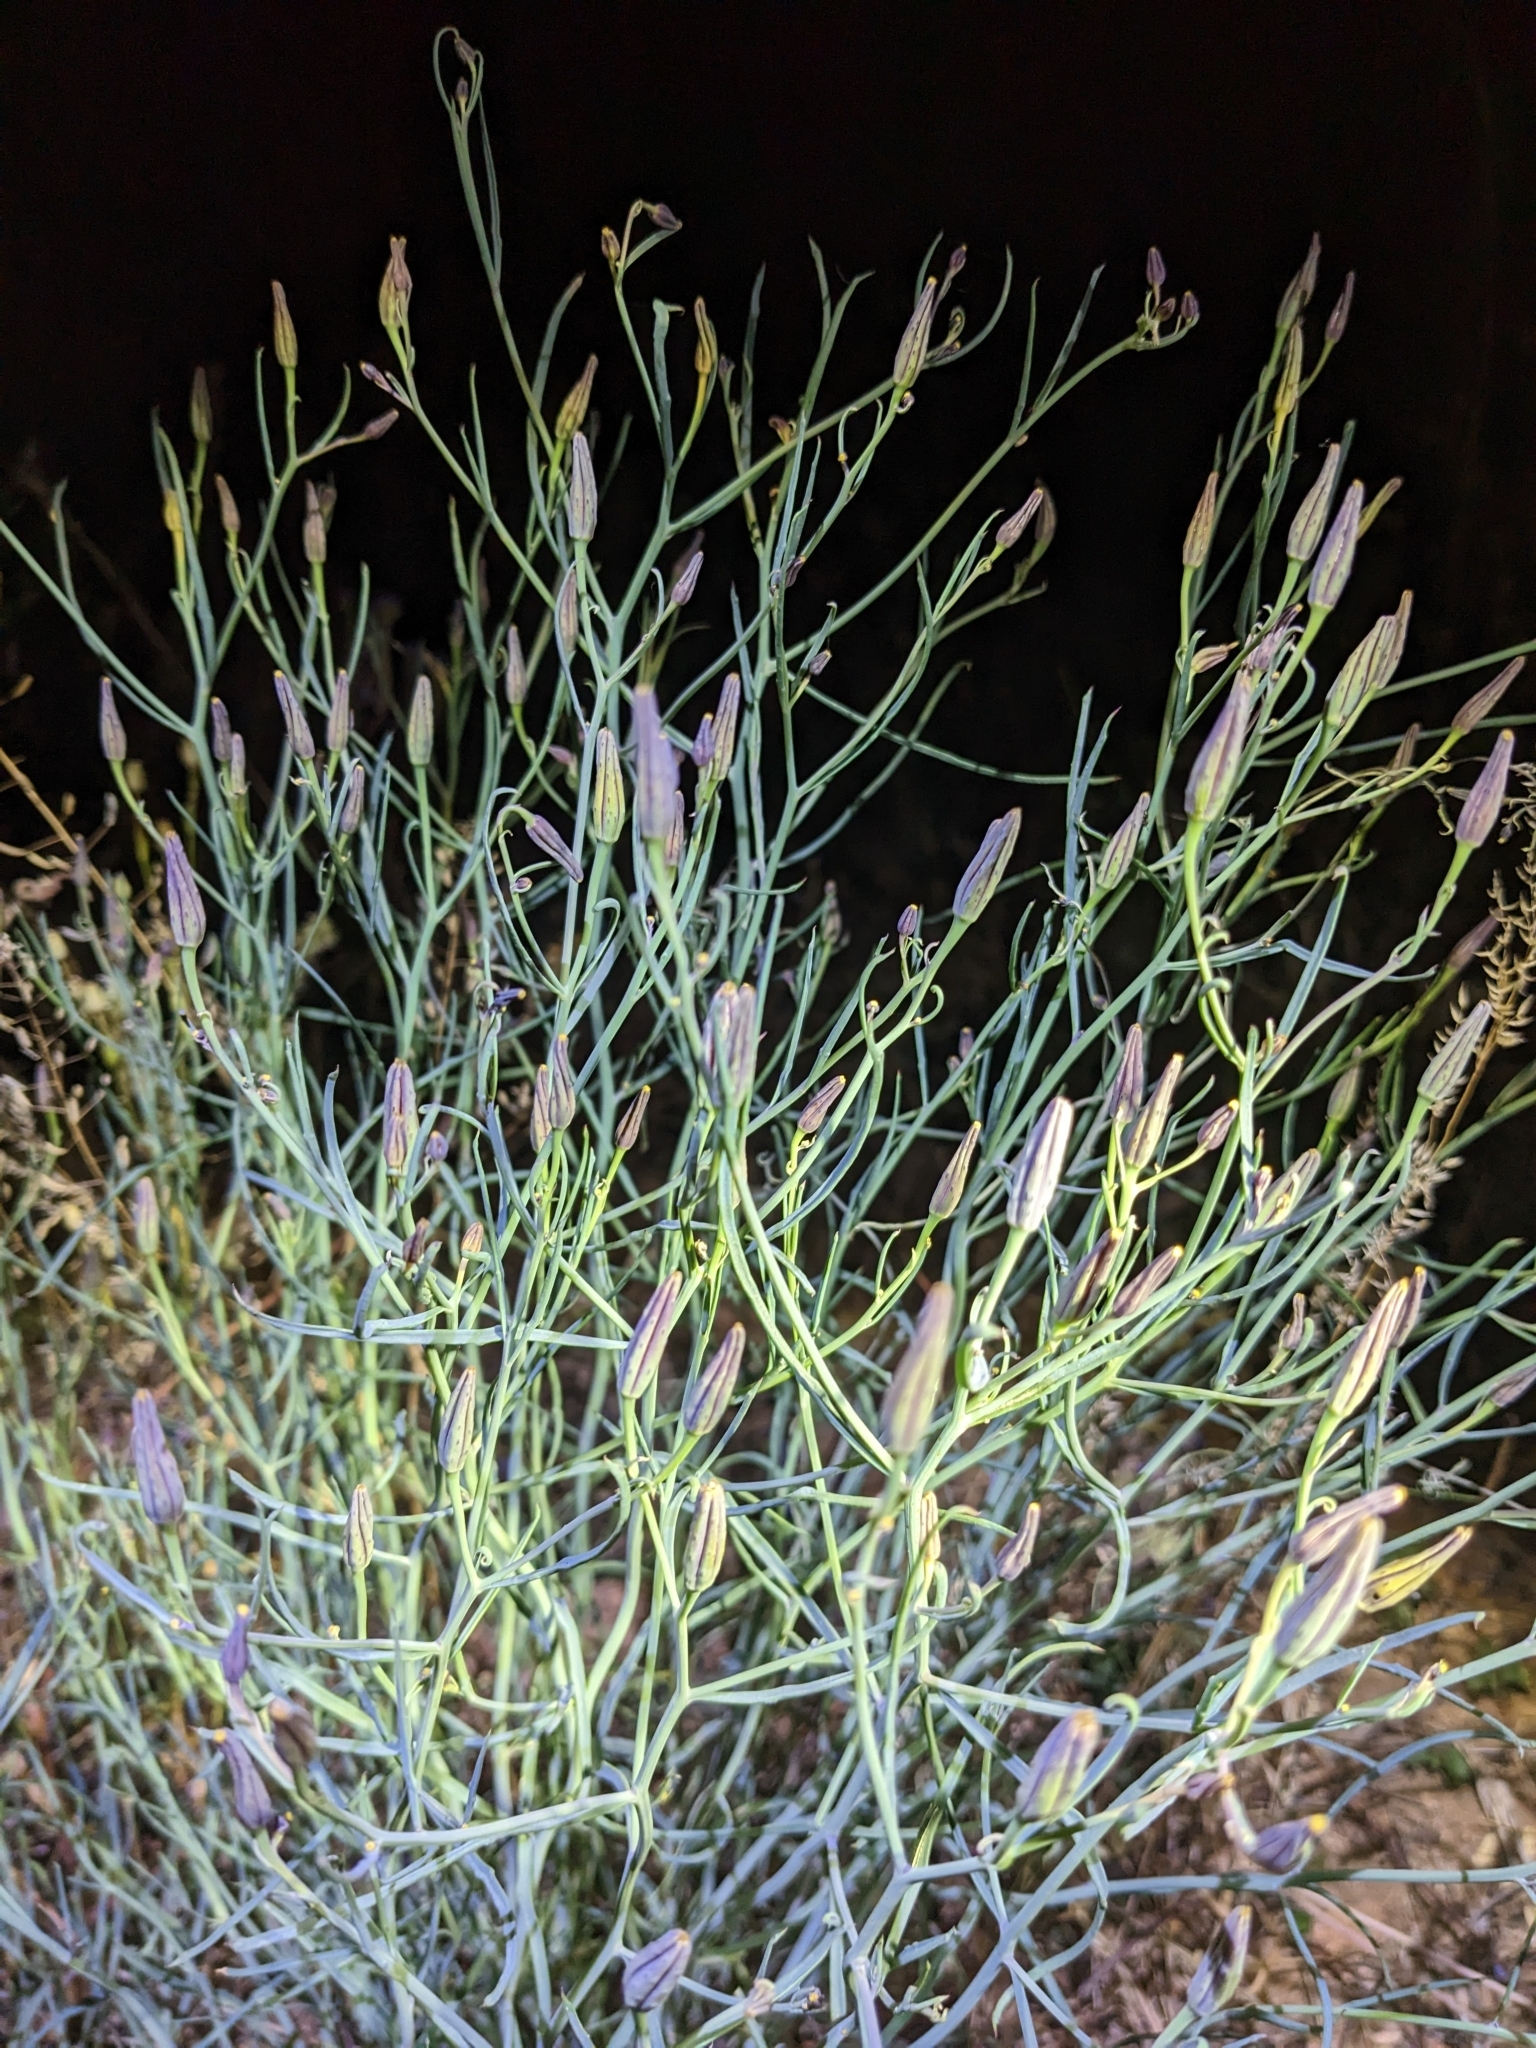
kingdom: Plantae
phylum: Tracheophyta
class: Magnoliopsida
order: Asterales
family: Asteraceae
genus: Porophyllum
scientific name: Porophyllum gracile
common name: Odora
